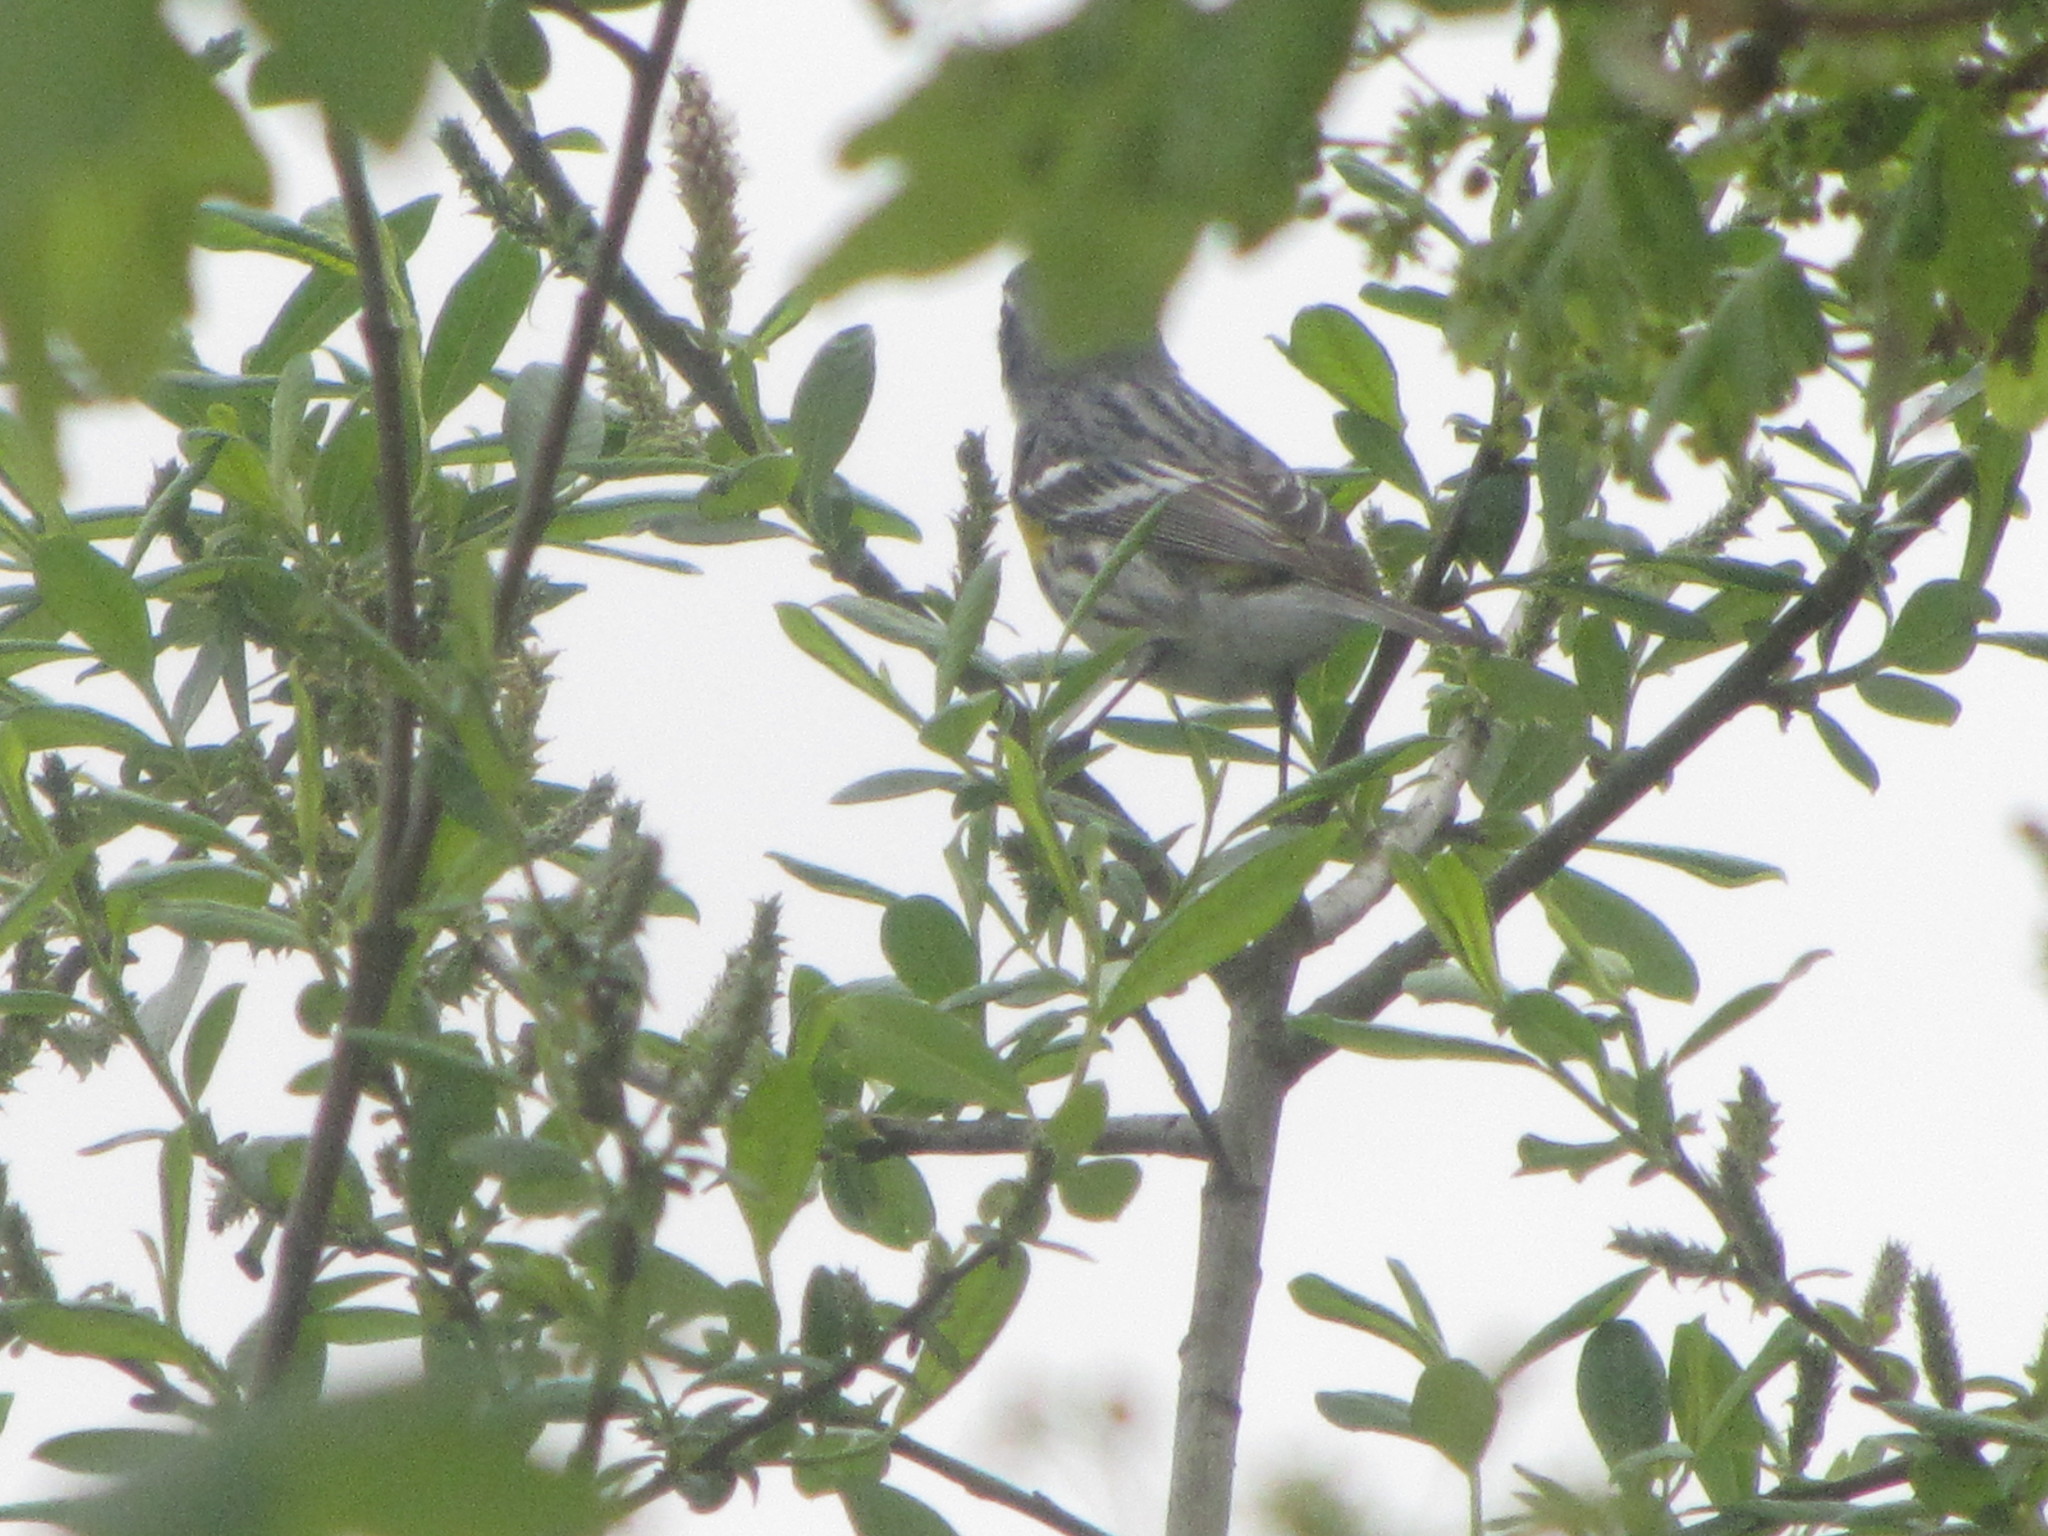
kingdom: Animalia
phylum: Chordata
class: Aves
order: Passeriformes
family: Parulidae
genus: Setophaga
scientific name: Setophaga coronata
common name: Myrtle warbler
